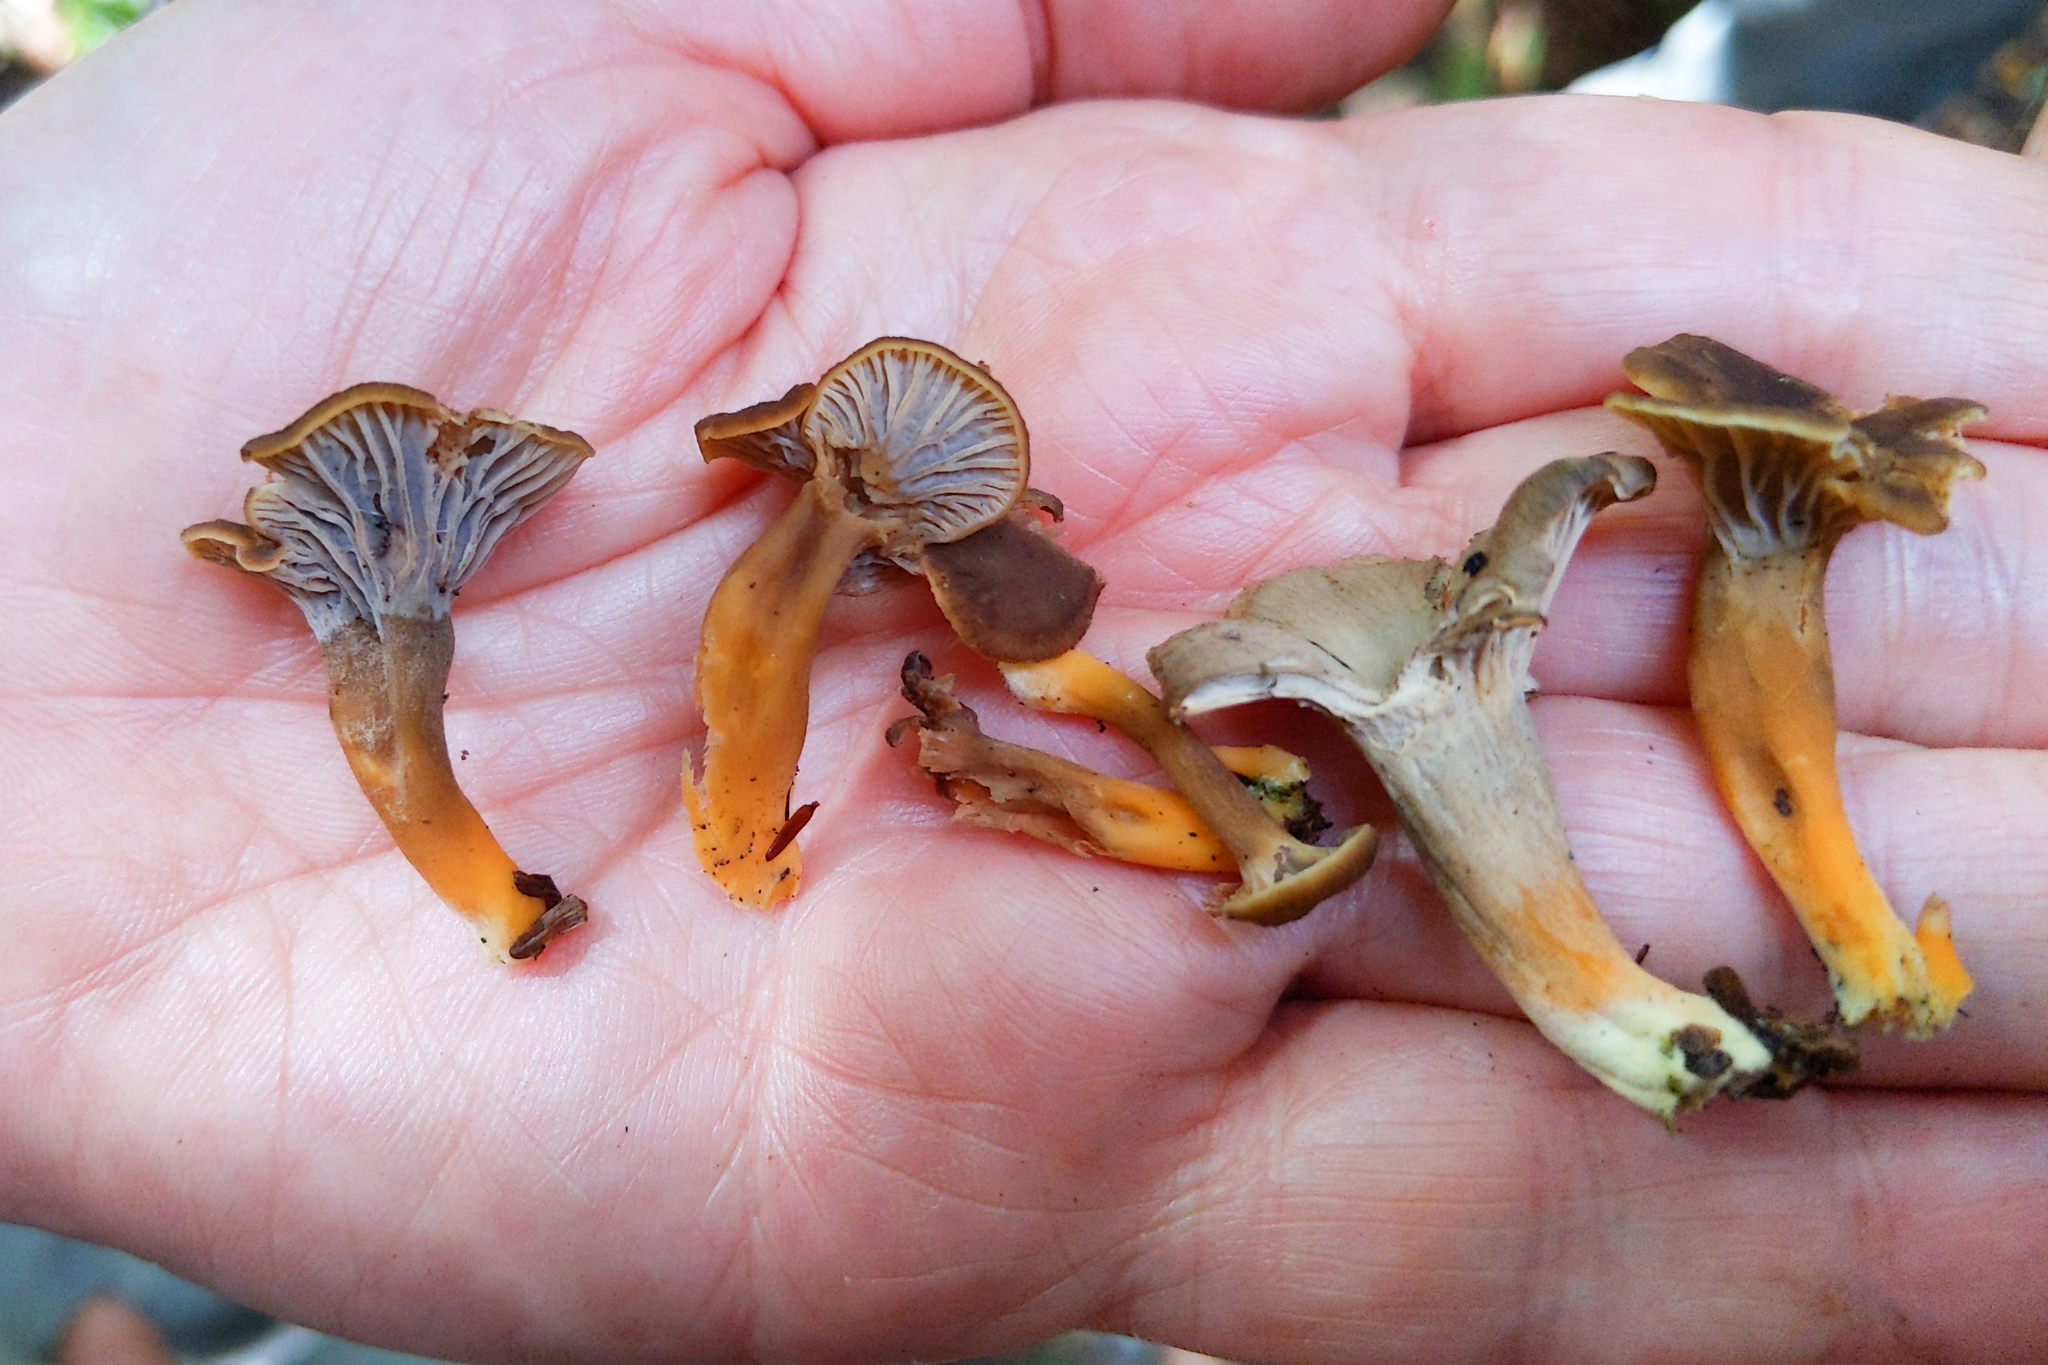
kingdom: Fungi
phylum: Basidiomycota
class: Agaricomycetes
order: Cantharellales
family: Hydnaceae
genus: Craterellus
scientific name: Craterellus tubaeformis
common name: Yellowfoot
